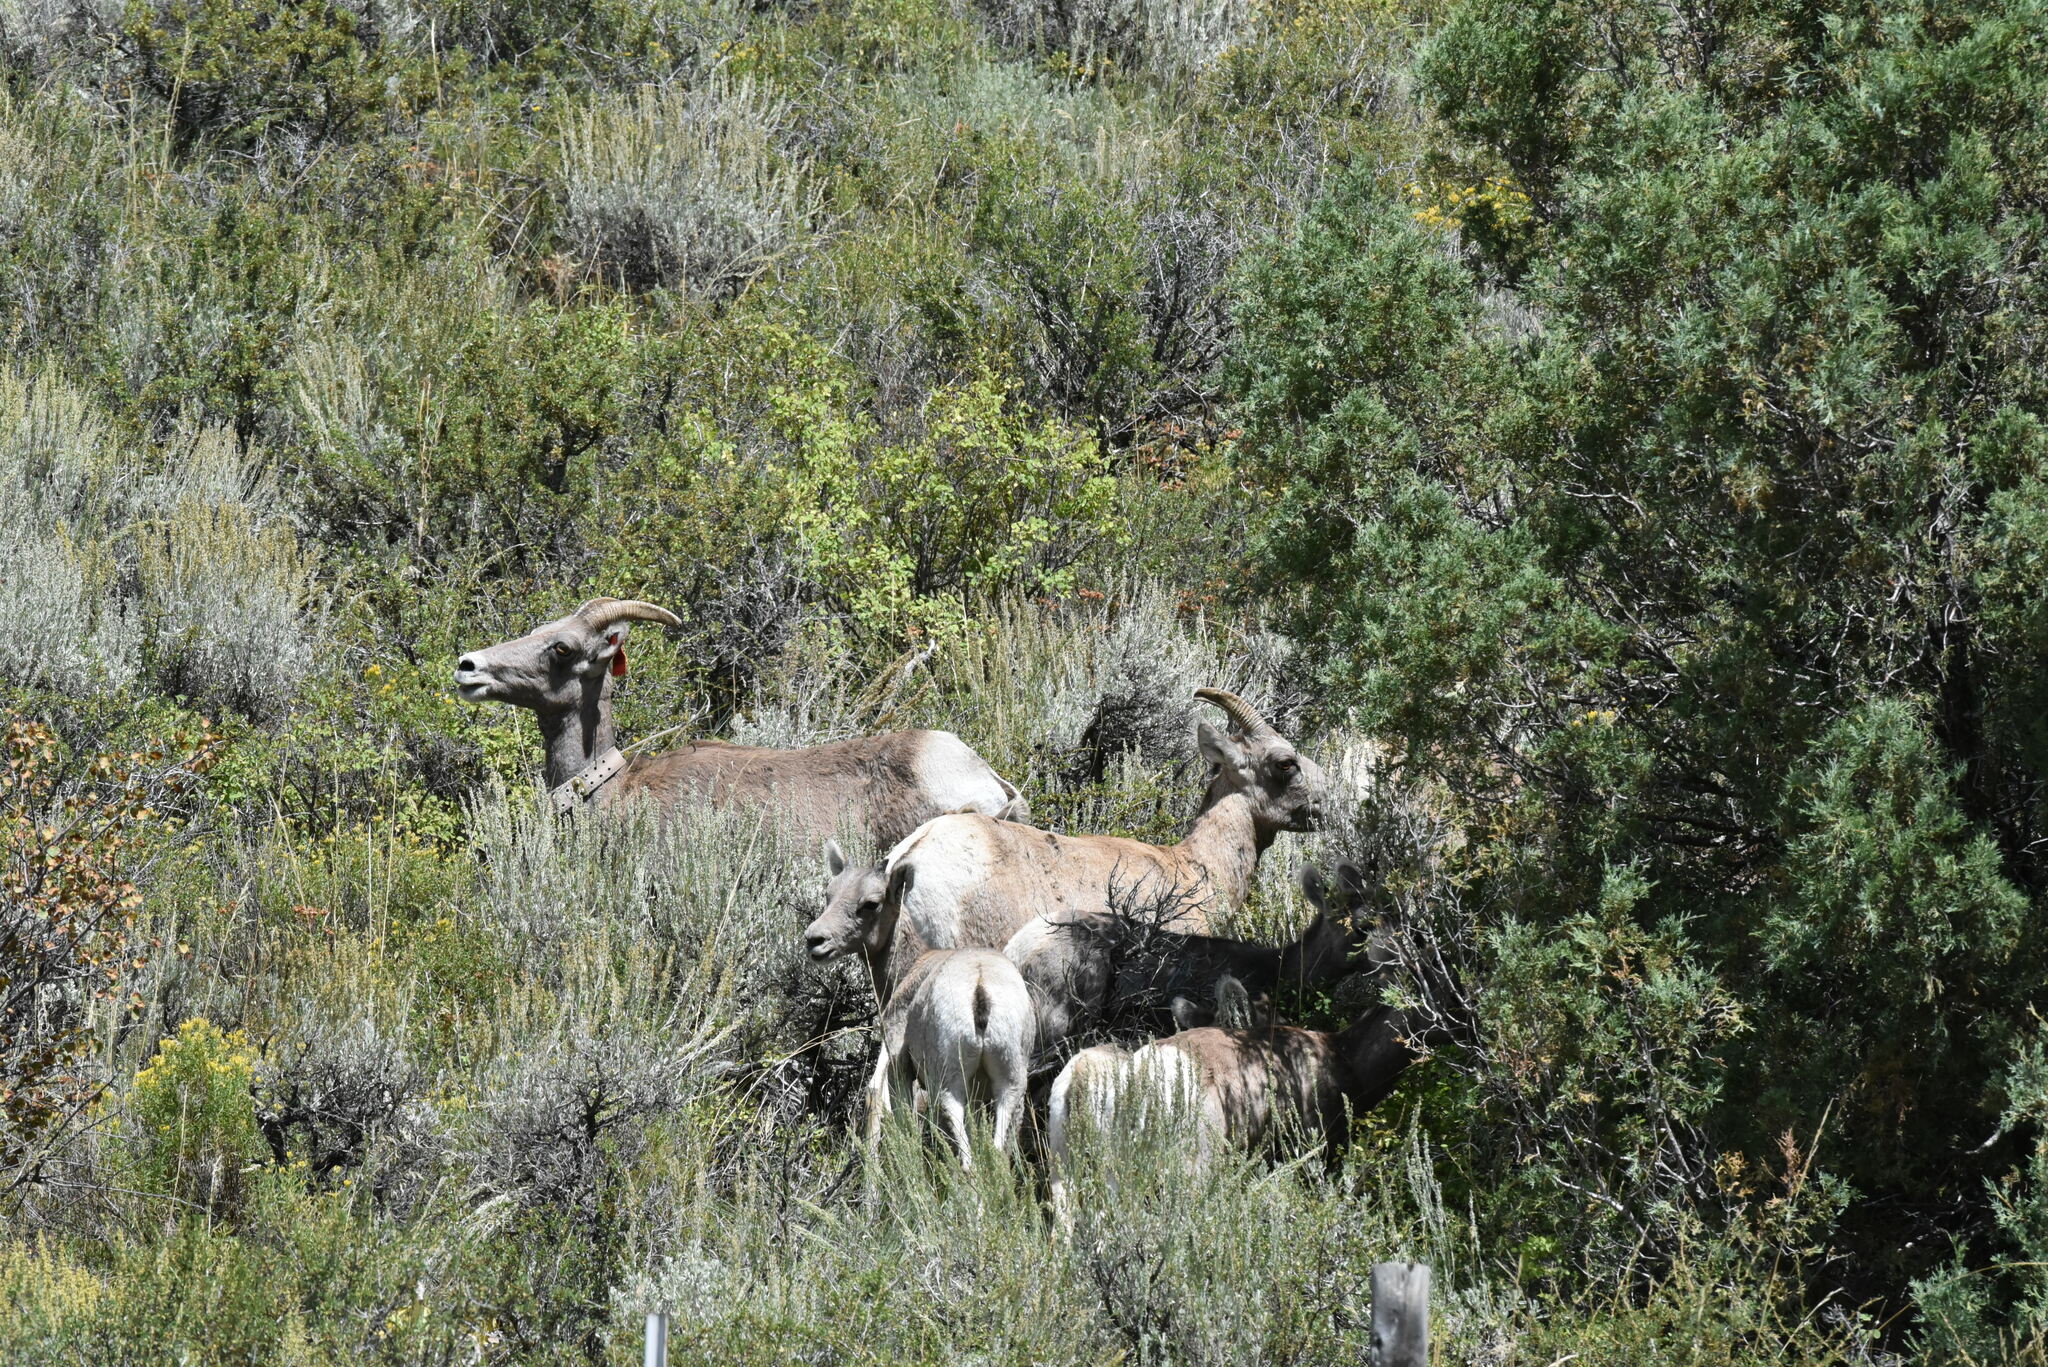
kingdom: Animalia
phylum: Chordata
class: Mammalia
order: Artiodactyla
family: Bovidae
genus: Ovis
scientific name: Ovis canadensis
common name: Bighorn sheep
